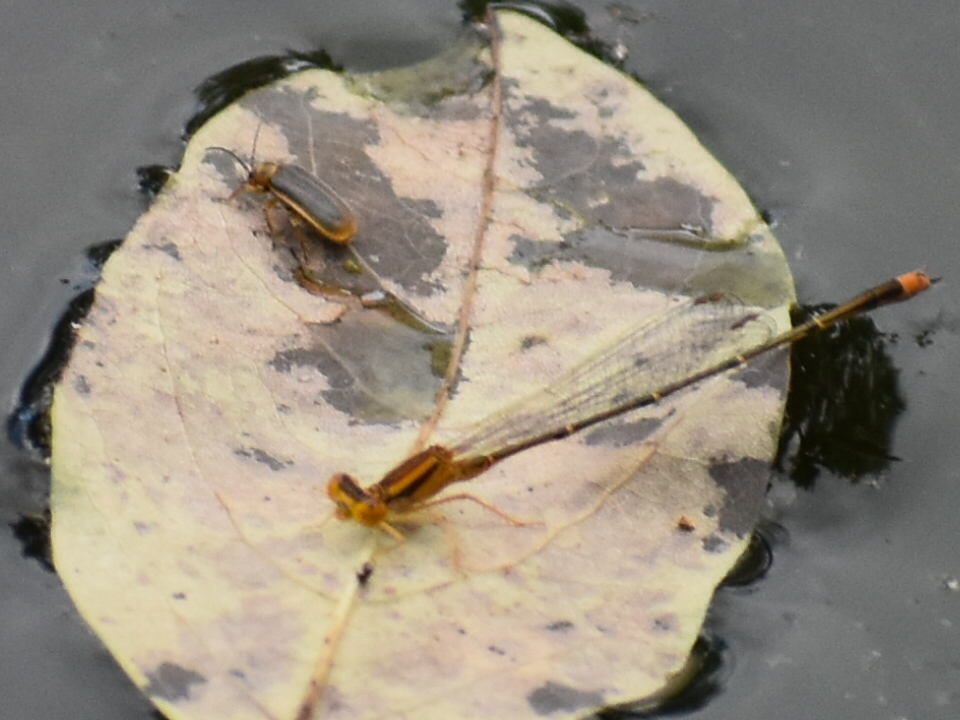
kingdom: Animalia
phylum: Arthropoda
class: Insecta
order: Odonata
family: Coenagrionidae
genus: Enallagma
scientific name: Enallagma signatum
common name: Orange bluet
